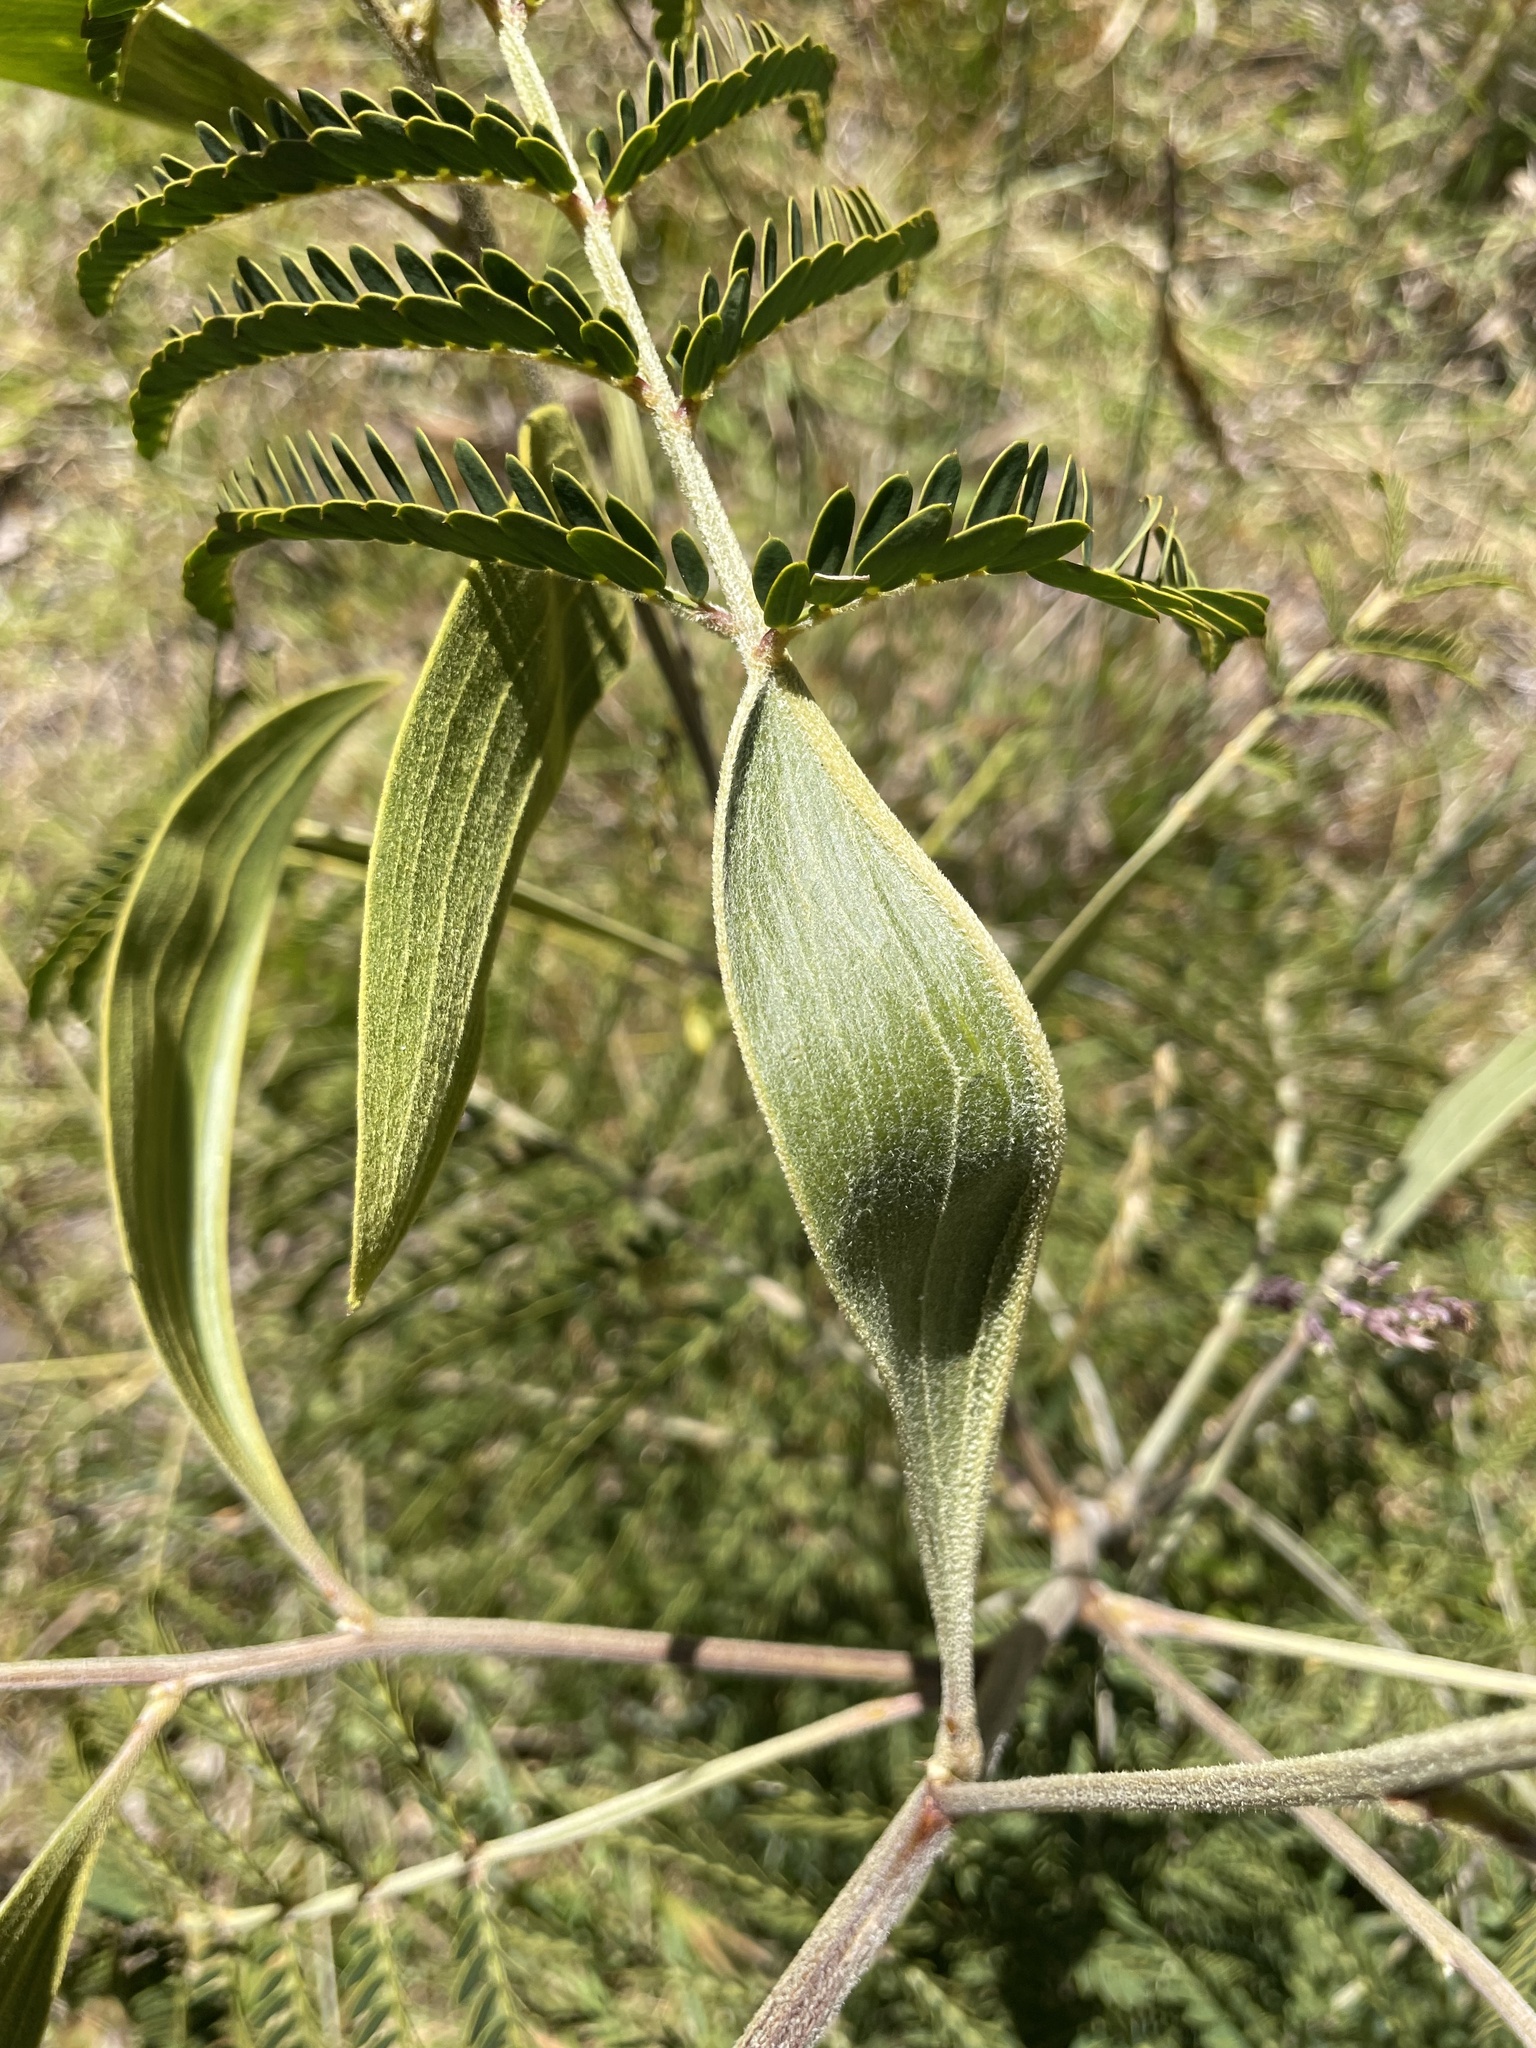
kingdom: Plantae
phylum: Tracheophyta
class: Magnoliopsida
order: Fabales
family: Fabaceae
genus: Acacia
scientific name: Acacia koa
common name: Gray koa
